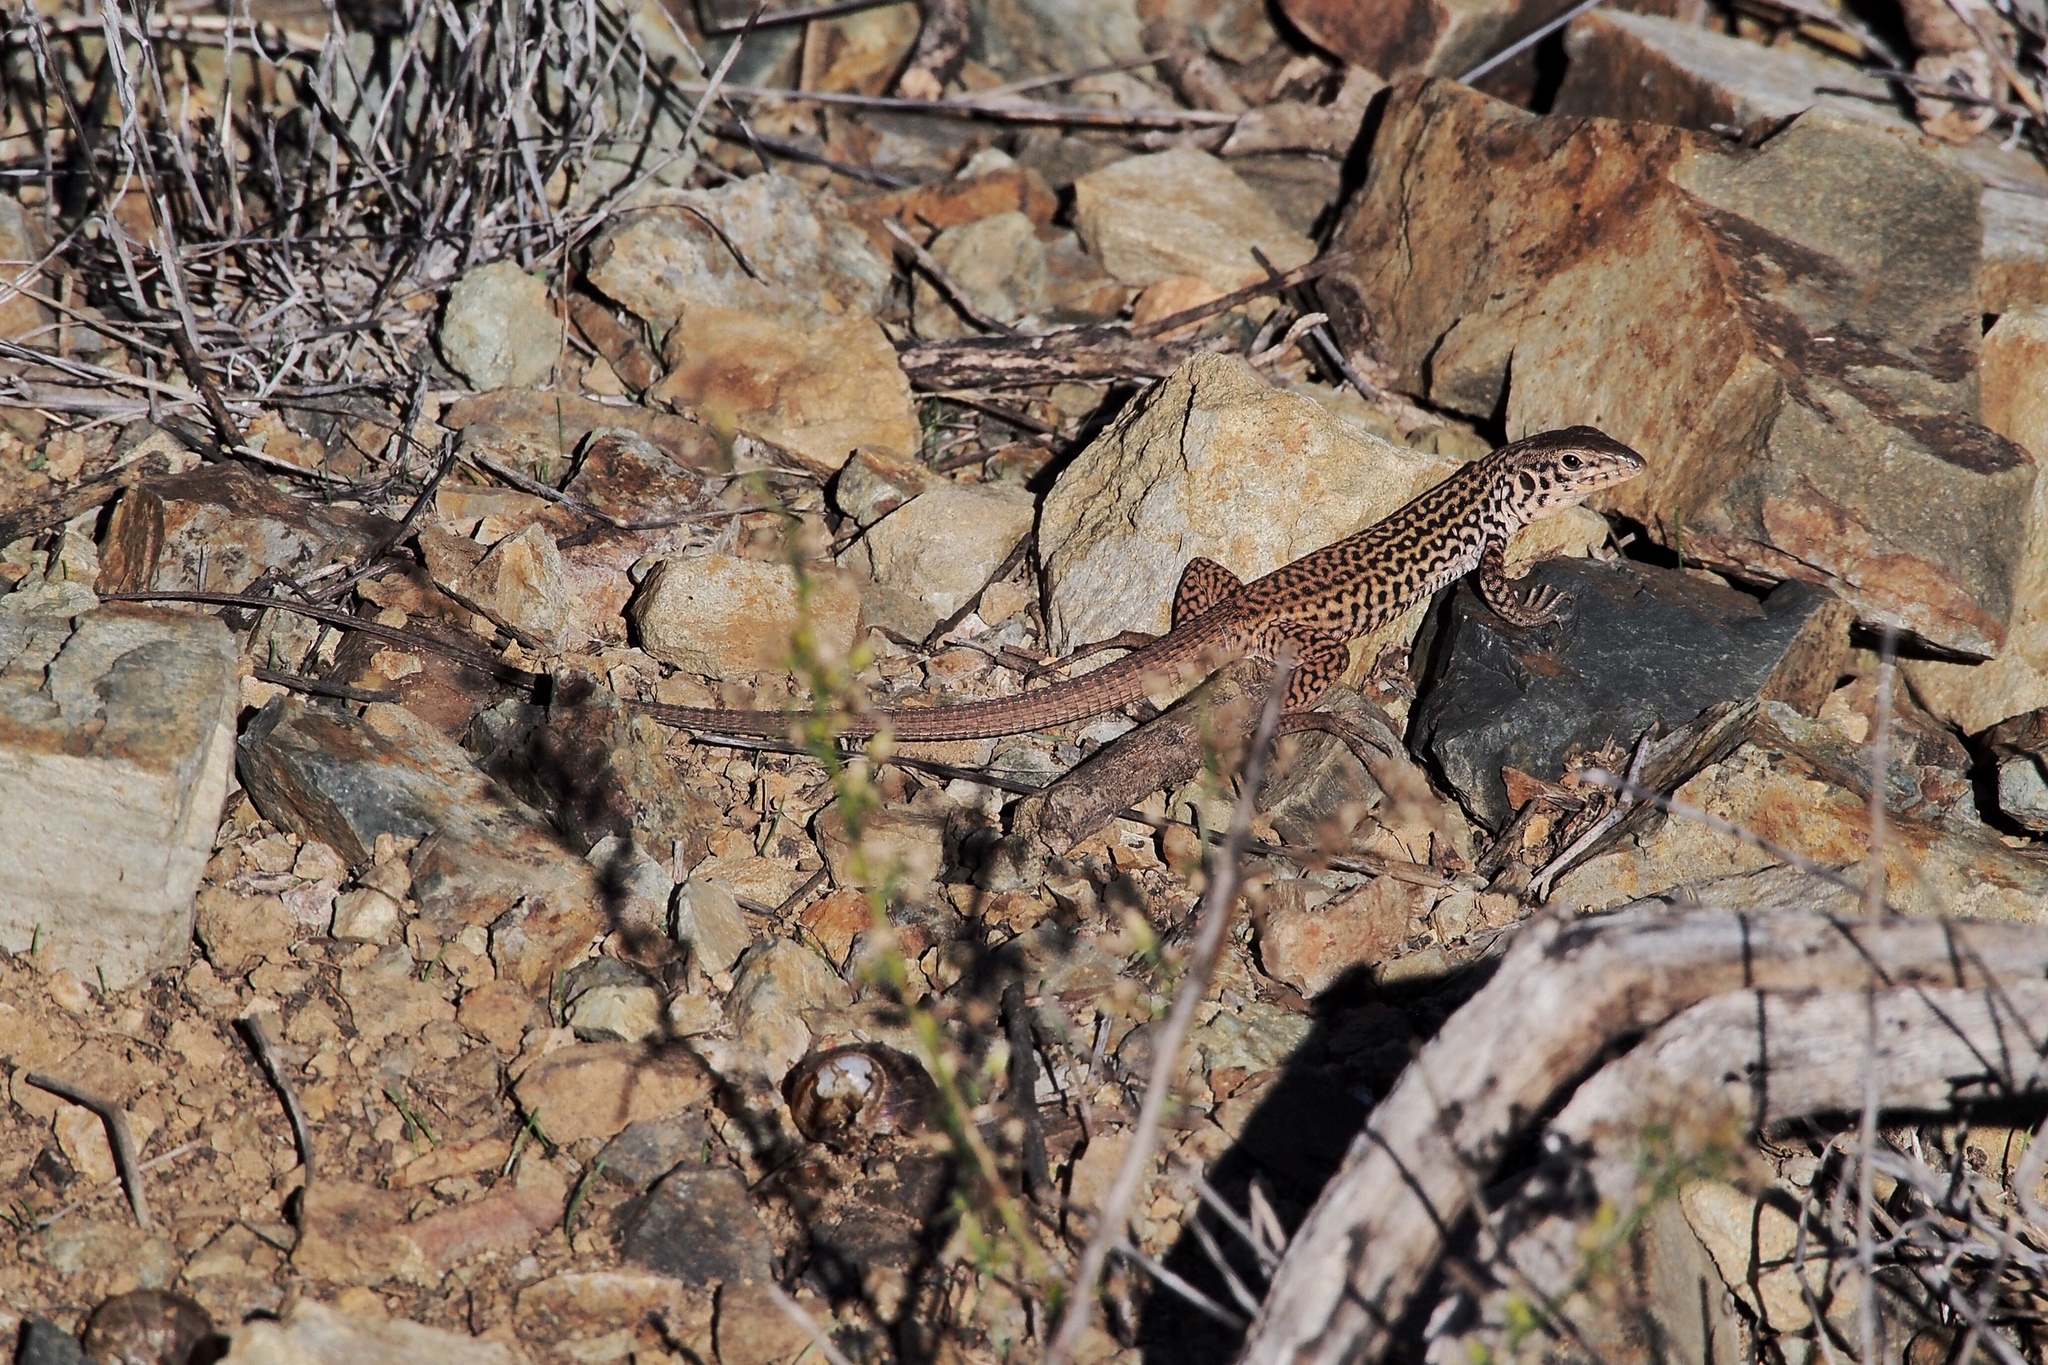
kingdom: Animalia
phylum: Chordata
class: Squamata
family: Teiidae
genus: Aspidoscelis
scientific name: Aspidoscelis tigris
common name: Tiger whiptail
